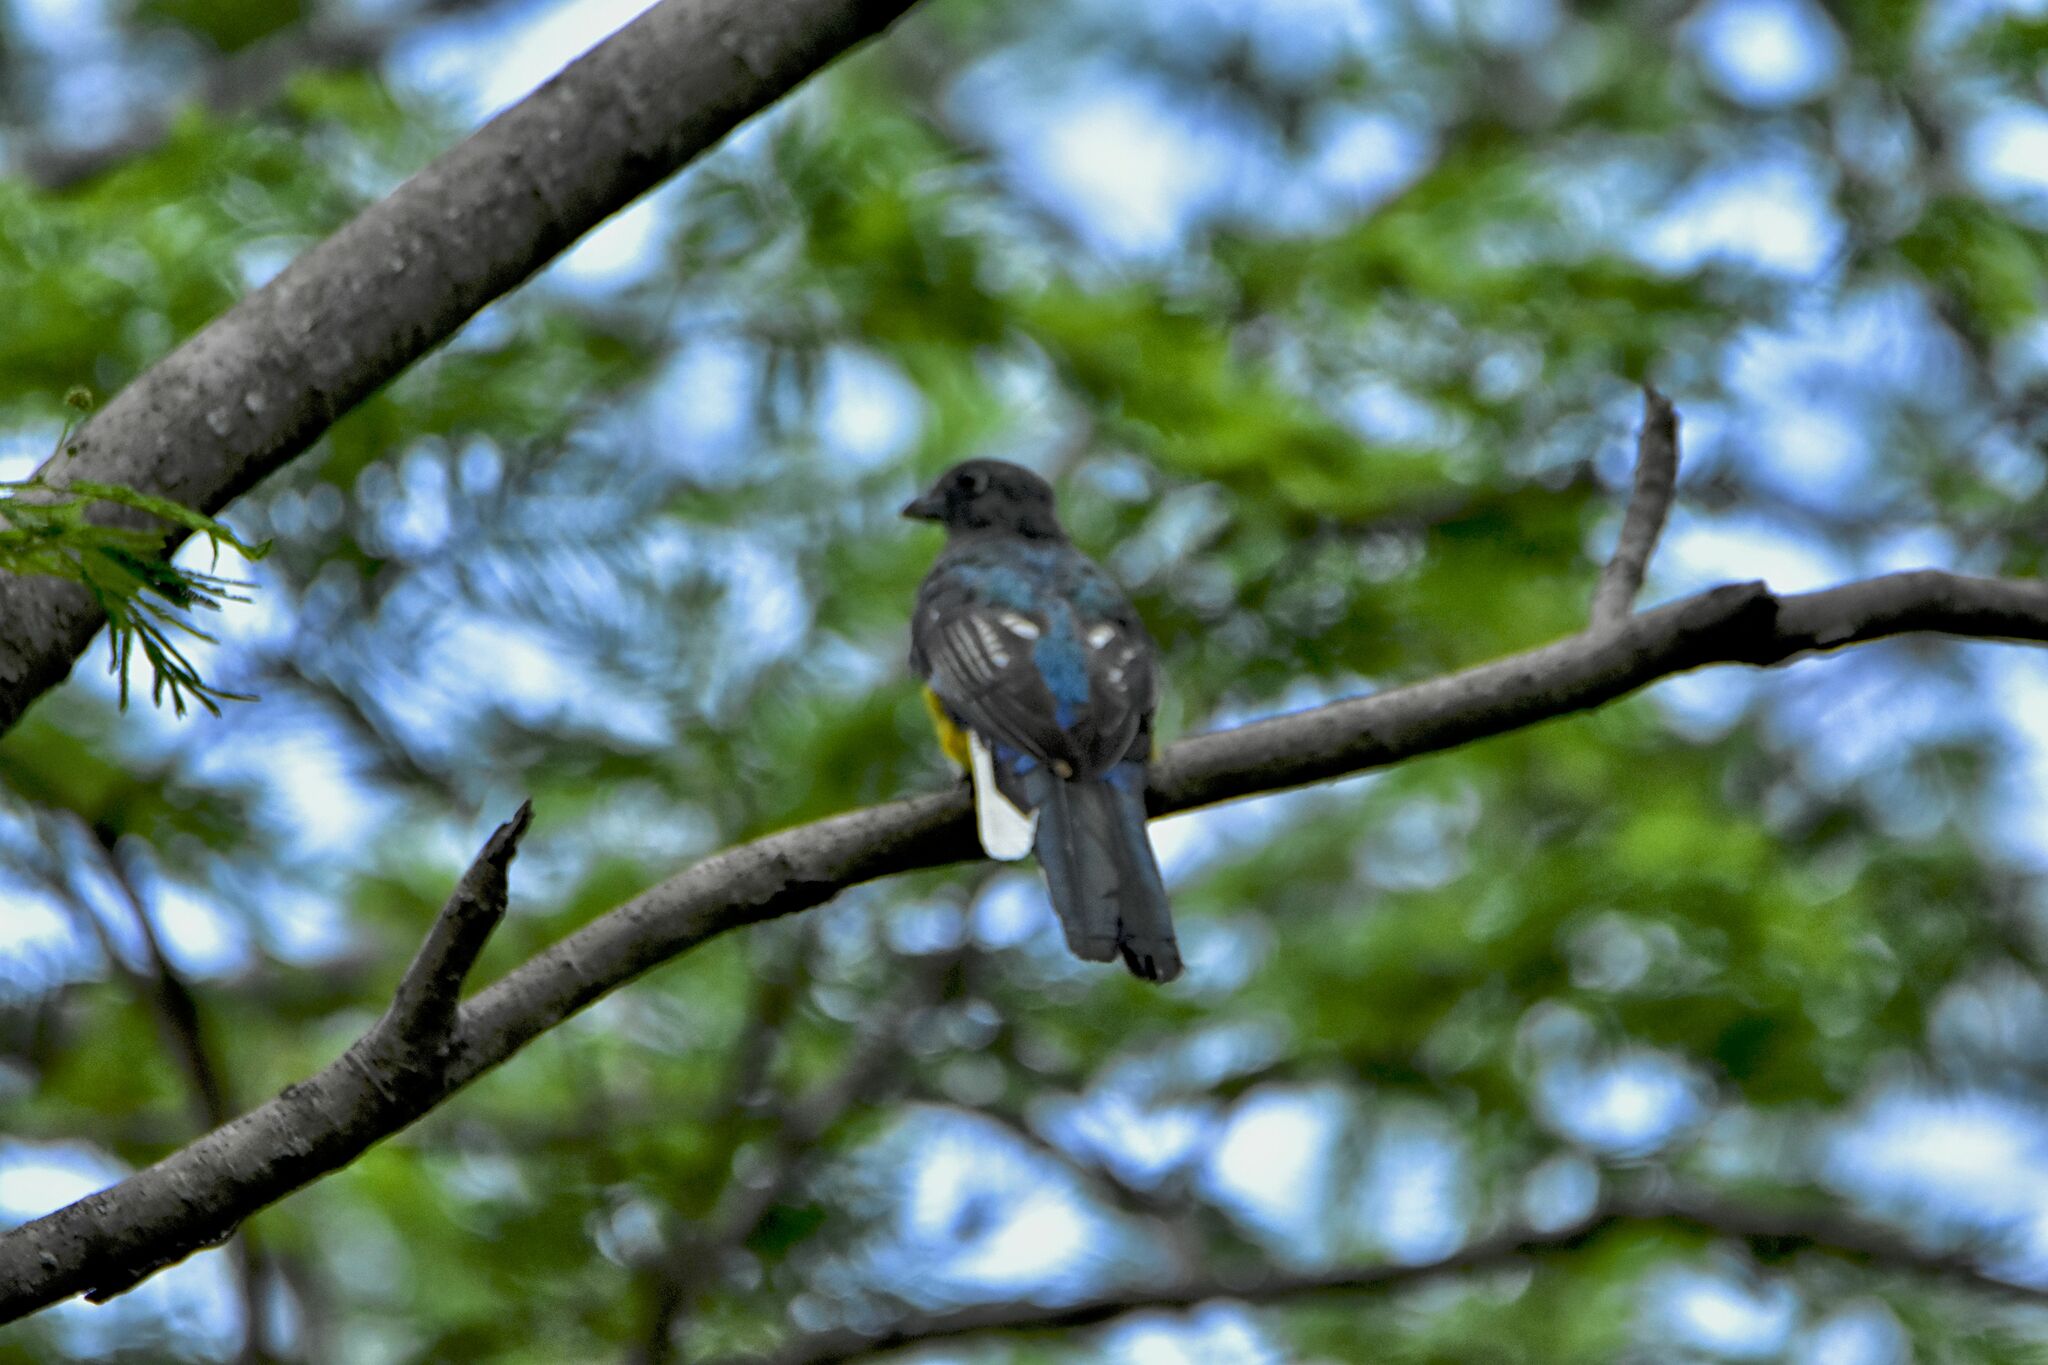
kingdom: Animalia
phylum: Chordata
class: Aves
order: Trogoniformes
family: Trogonidae
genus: Trogon
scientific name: Trogon citreolus
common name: Citreoline trogon
